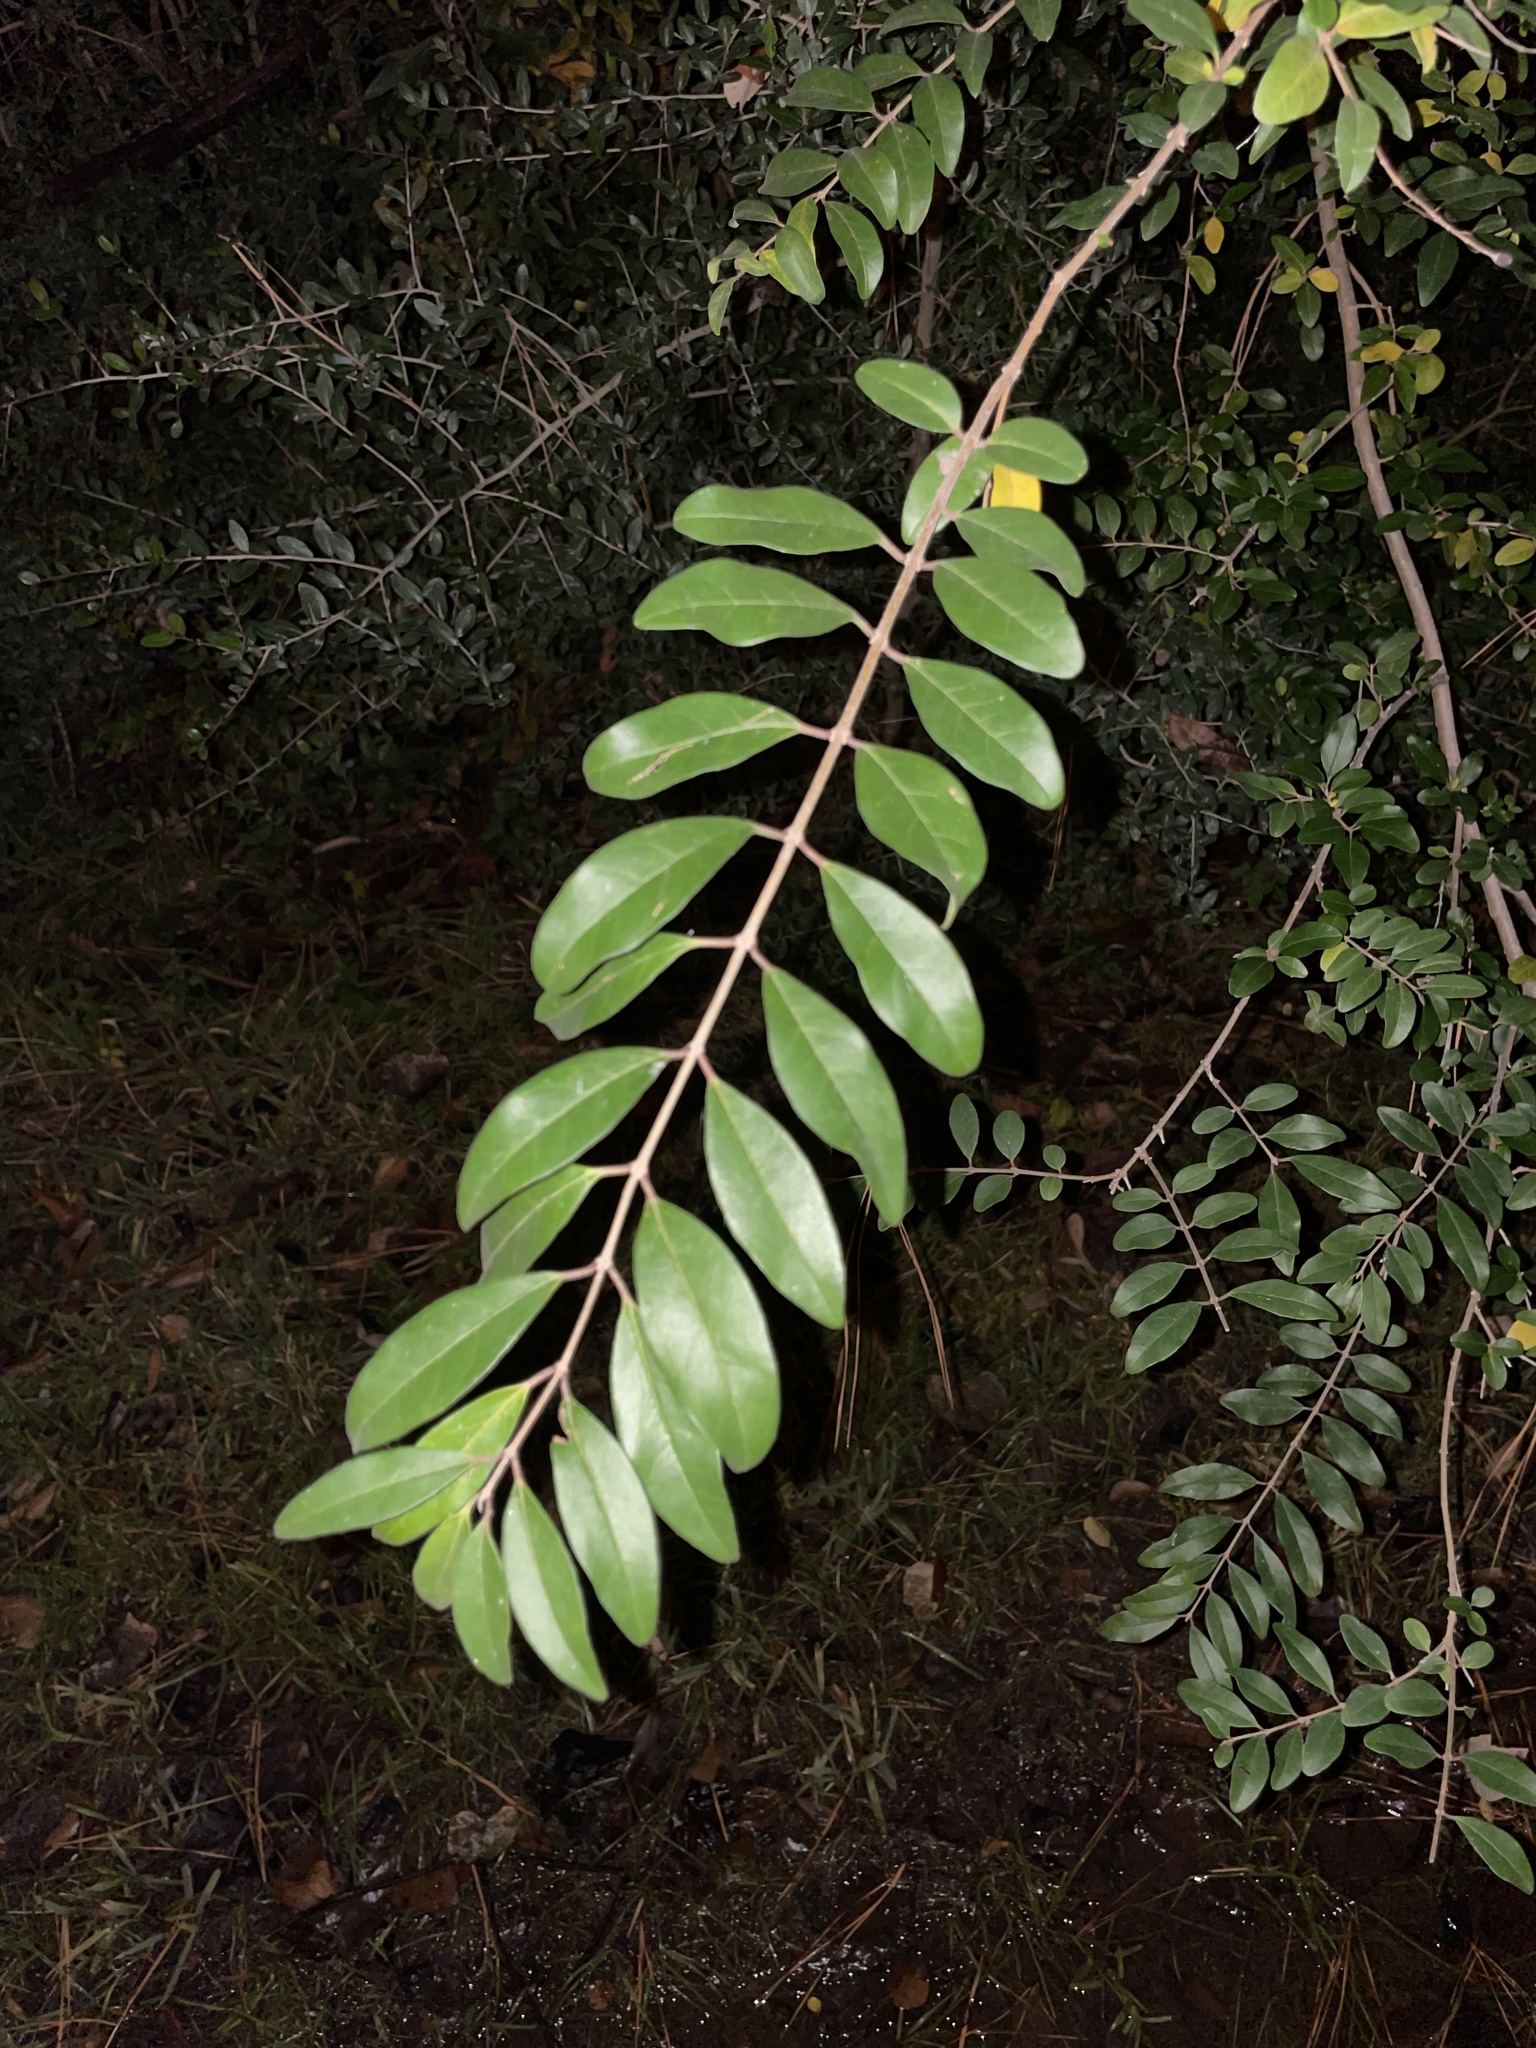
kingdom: Plantae
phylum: Tracheophyta
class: Magnoliopsida
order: Lamiales
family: Oleaceae
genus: Ligustrum
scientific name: Ligustrum sinense
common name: Chinese privet
